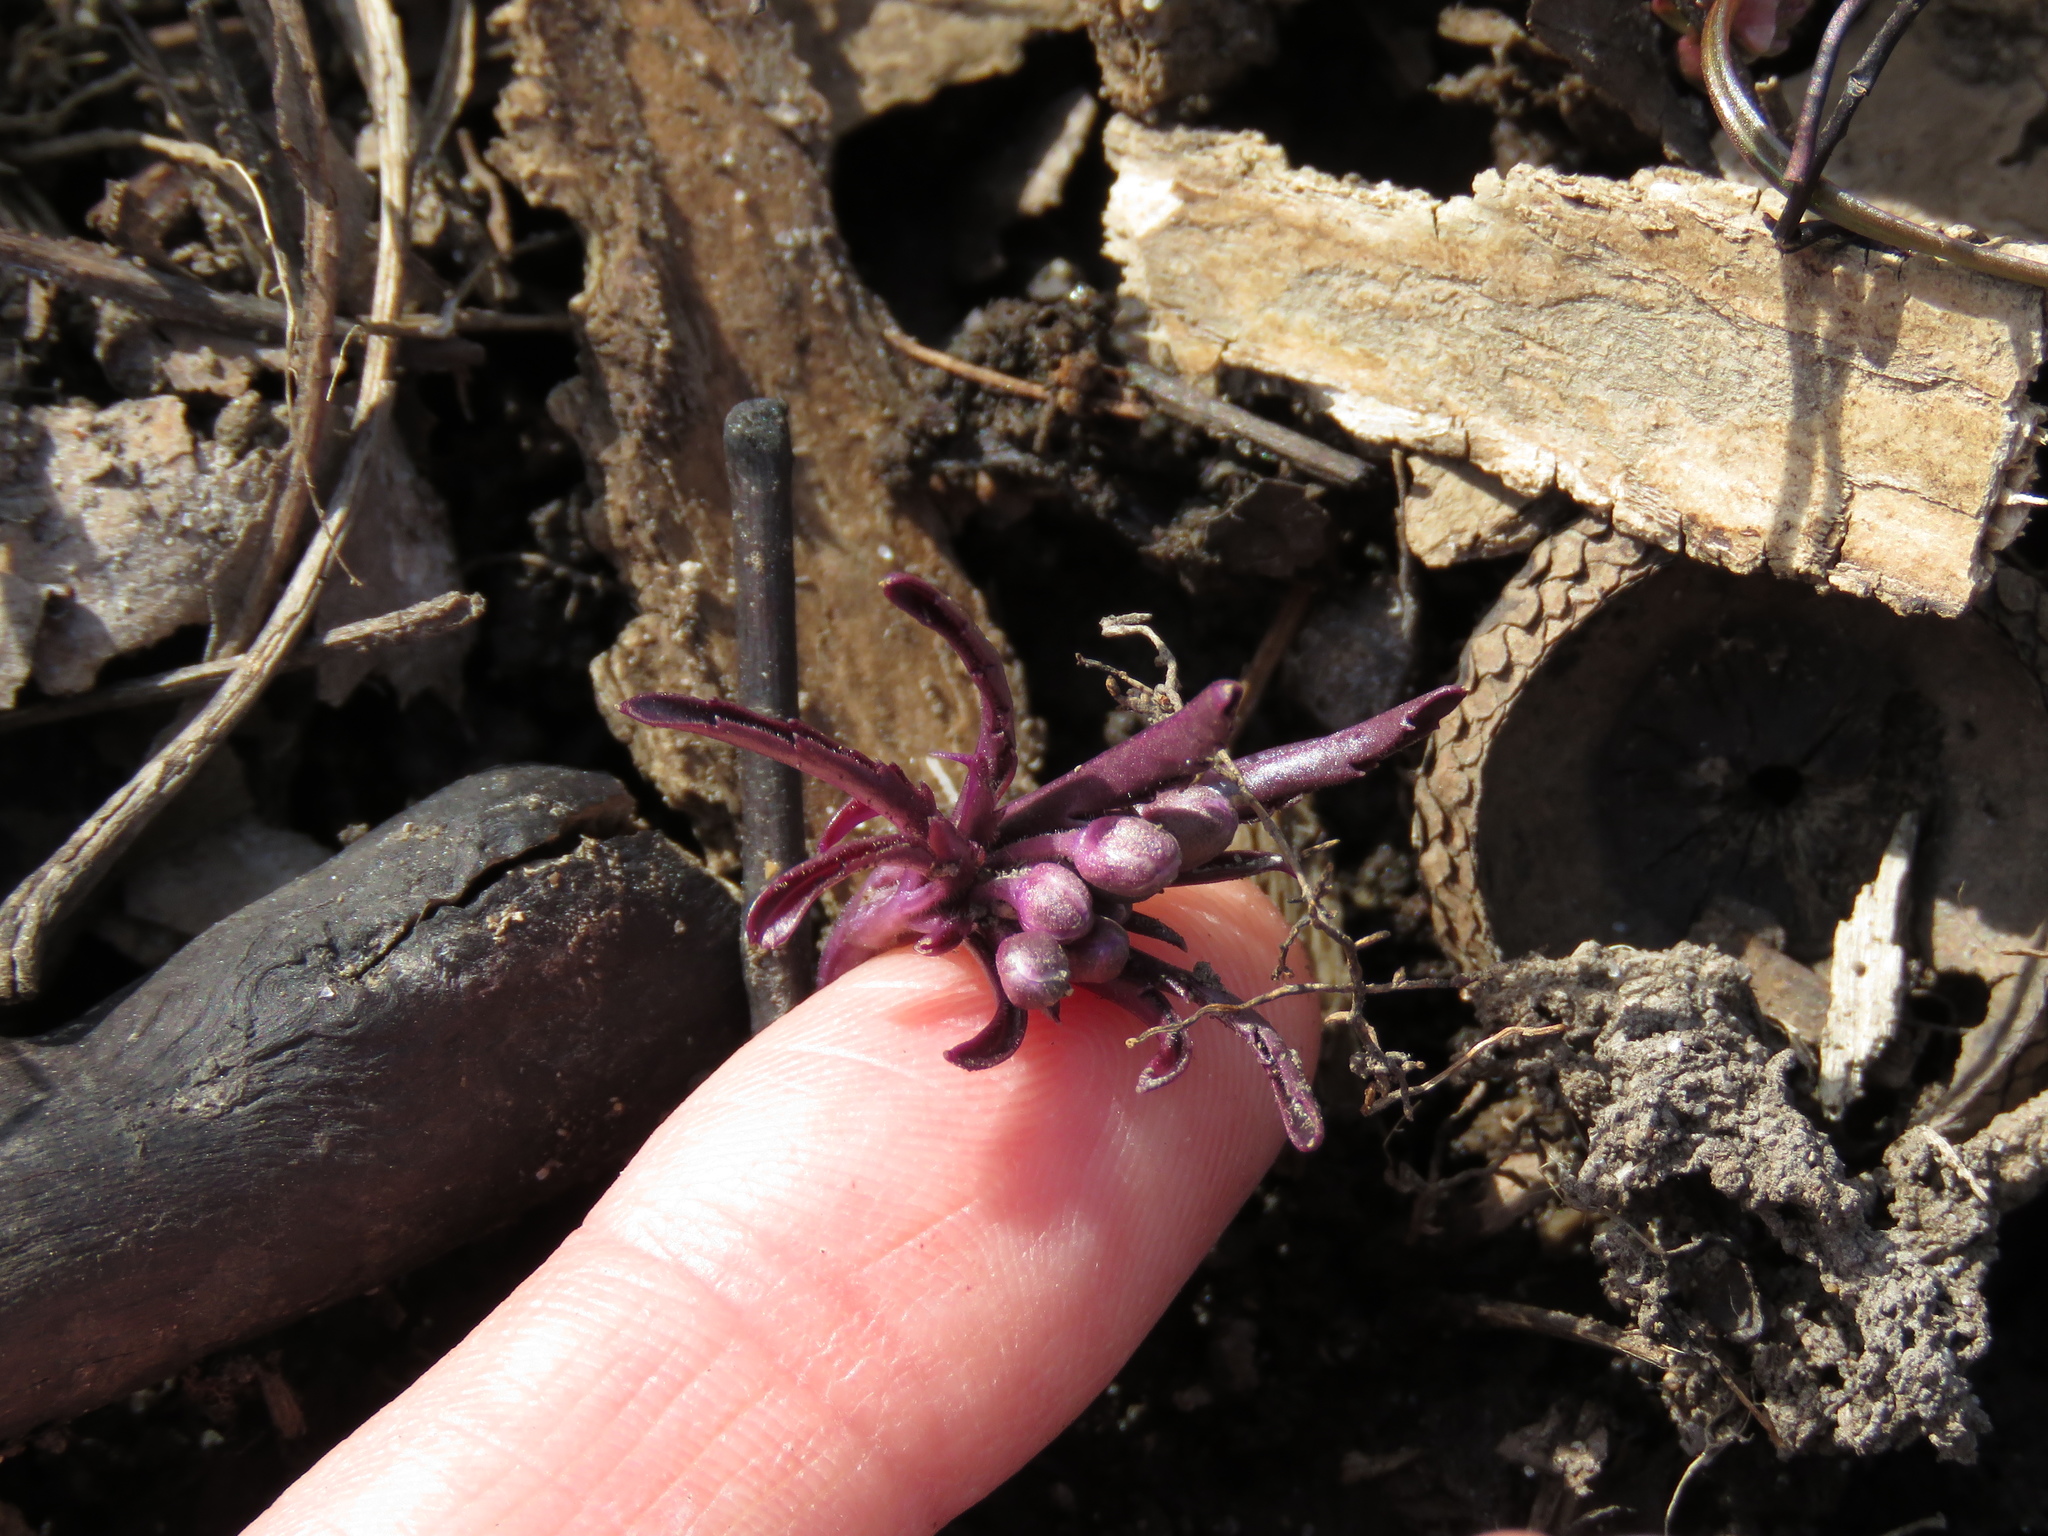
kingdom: Plantae
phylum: Tracheophyta
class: Magnoliopsida
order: Brassicales
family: Brassicaceae
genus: Cardamine
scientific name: Cardamine concatenata
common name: Cut-leaf toothcup
